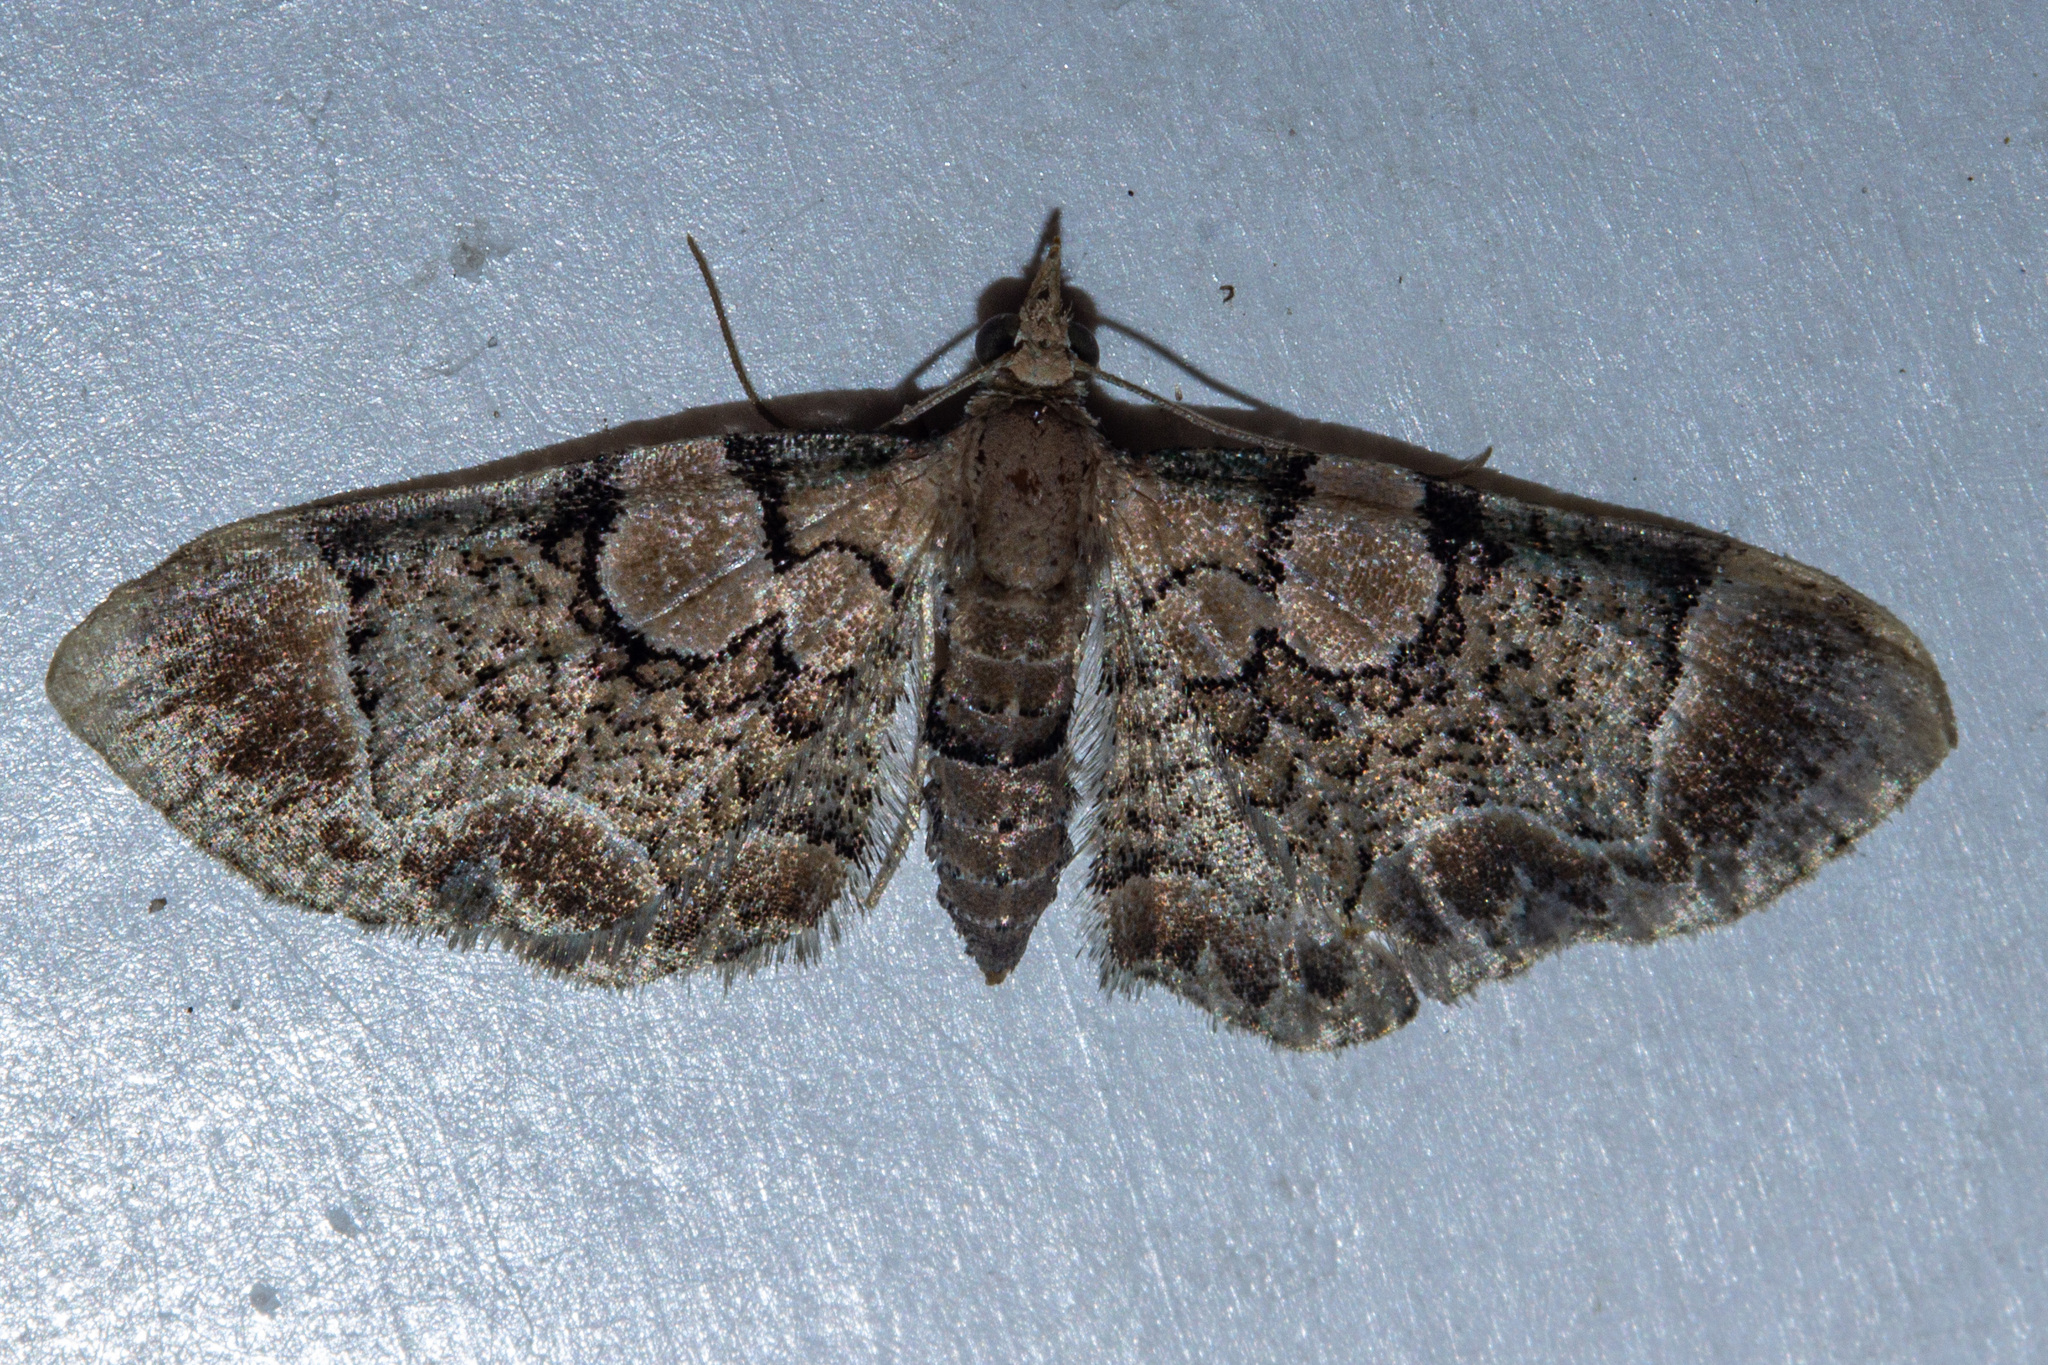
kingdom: Animalia
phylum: Arthropoda
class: Insecta
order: Lepidoptera
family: Geometridae
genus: Chloroclystis
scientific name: Chloroclystis
